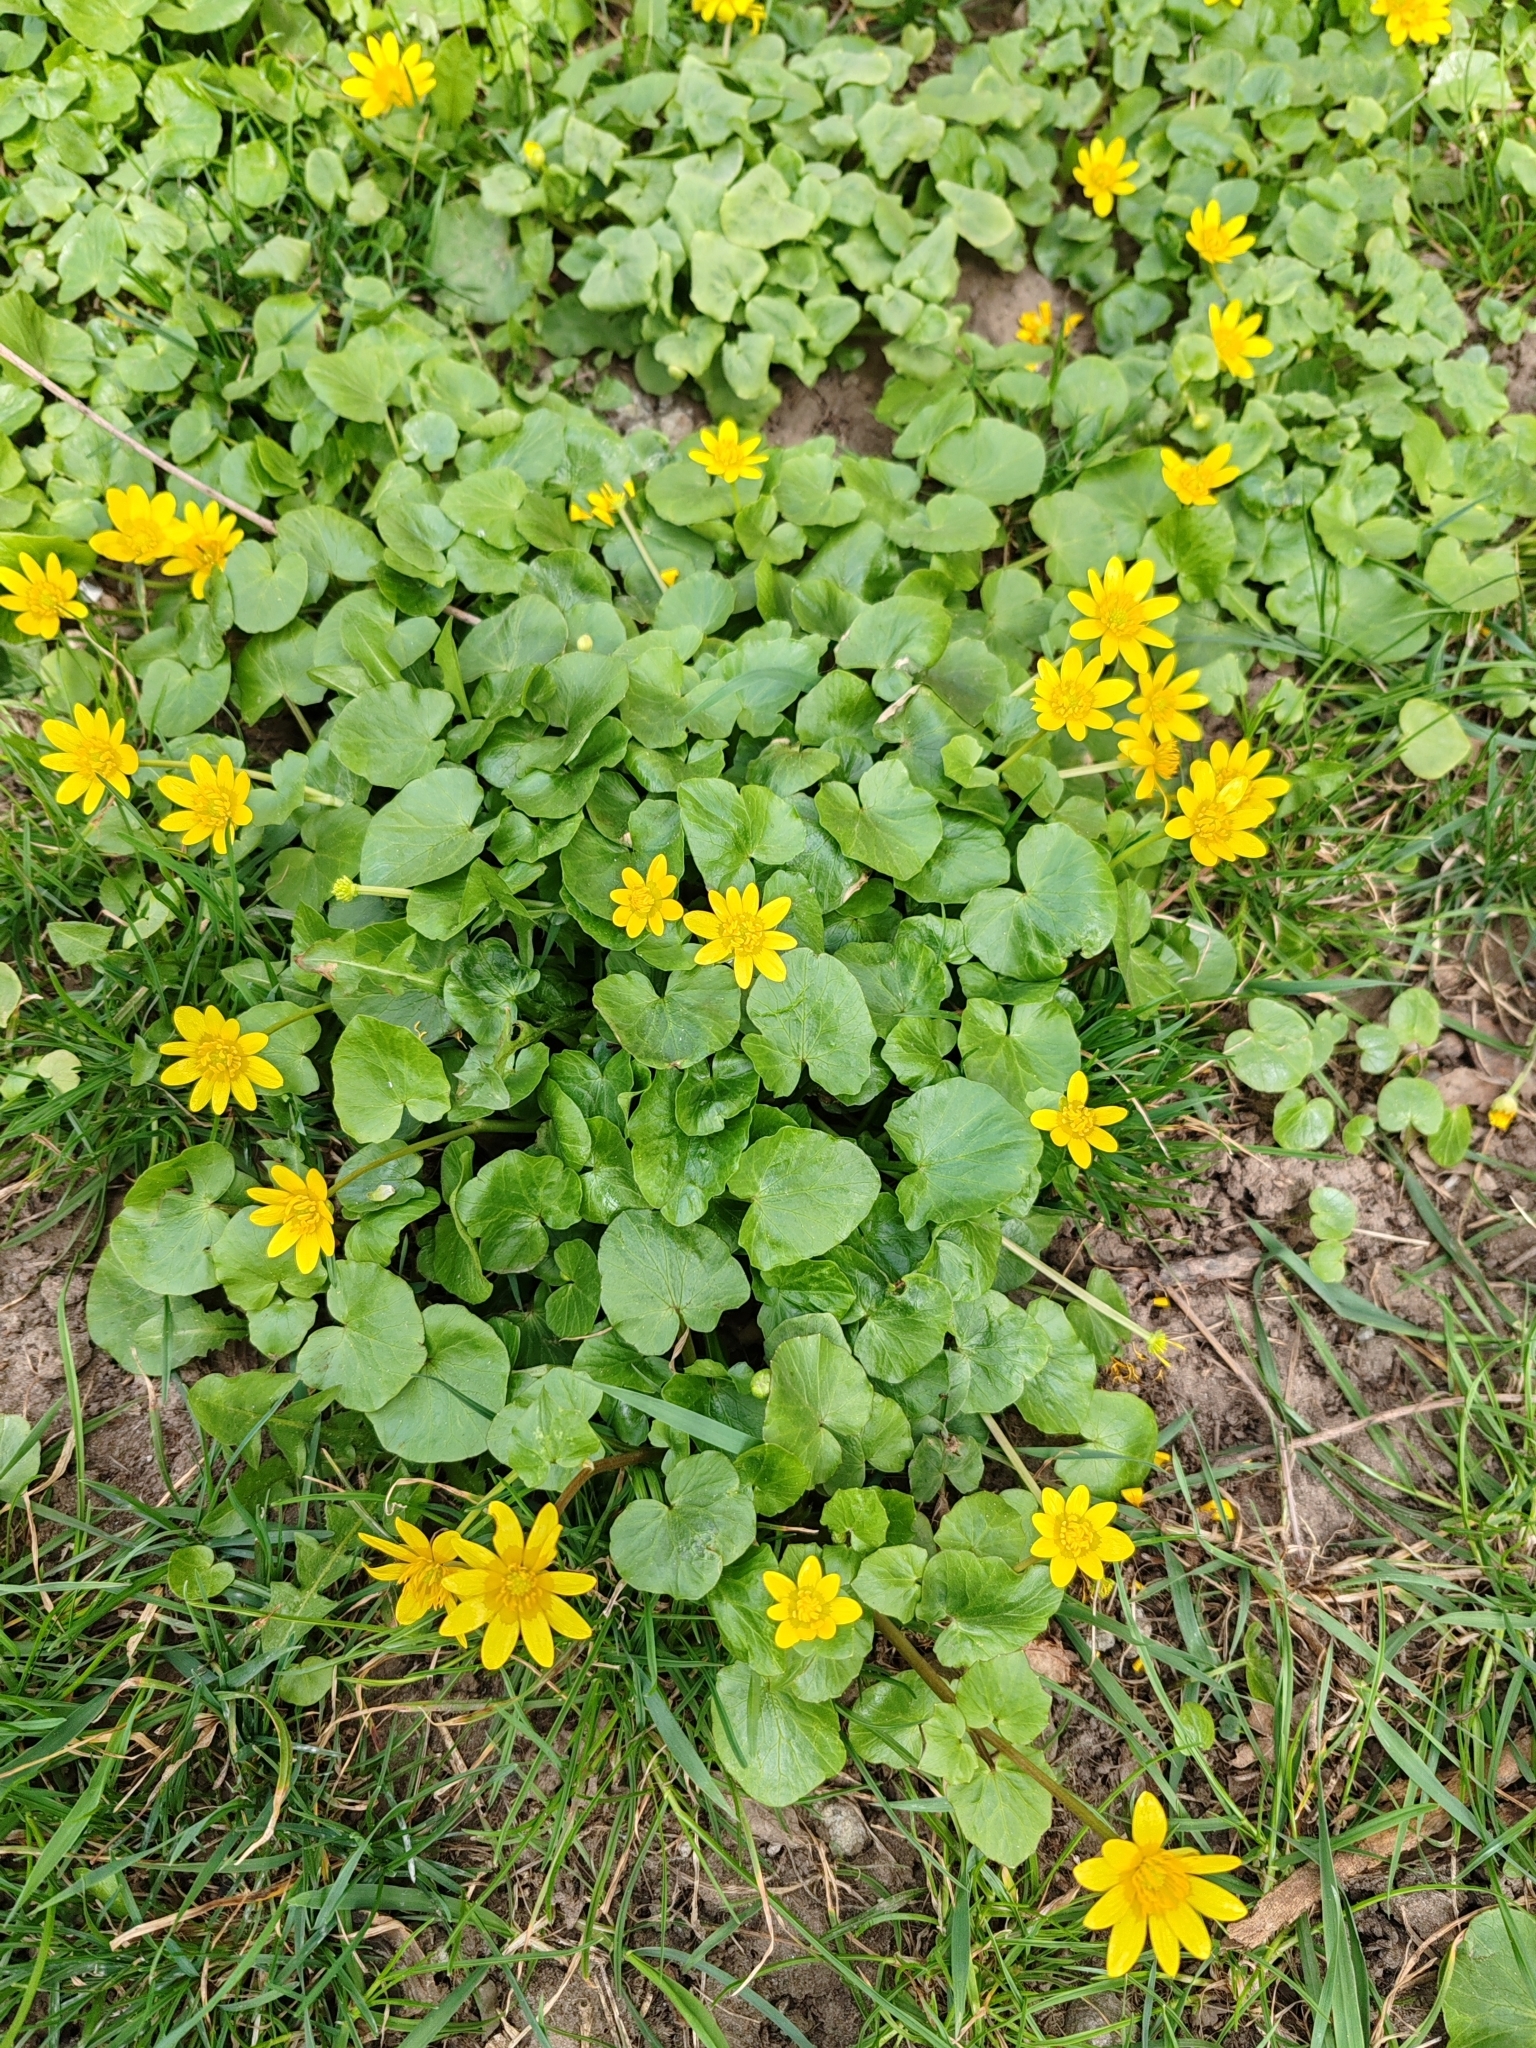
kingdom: Plantae
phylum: Tracheophyta
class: Magnoliopsida
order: Ranunculales
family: Ranunculaceae
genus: Ficaria
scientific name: Ficaria verna
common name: Lesser celandine
